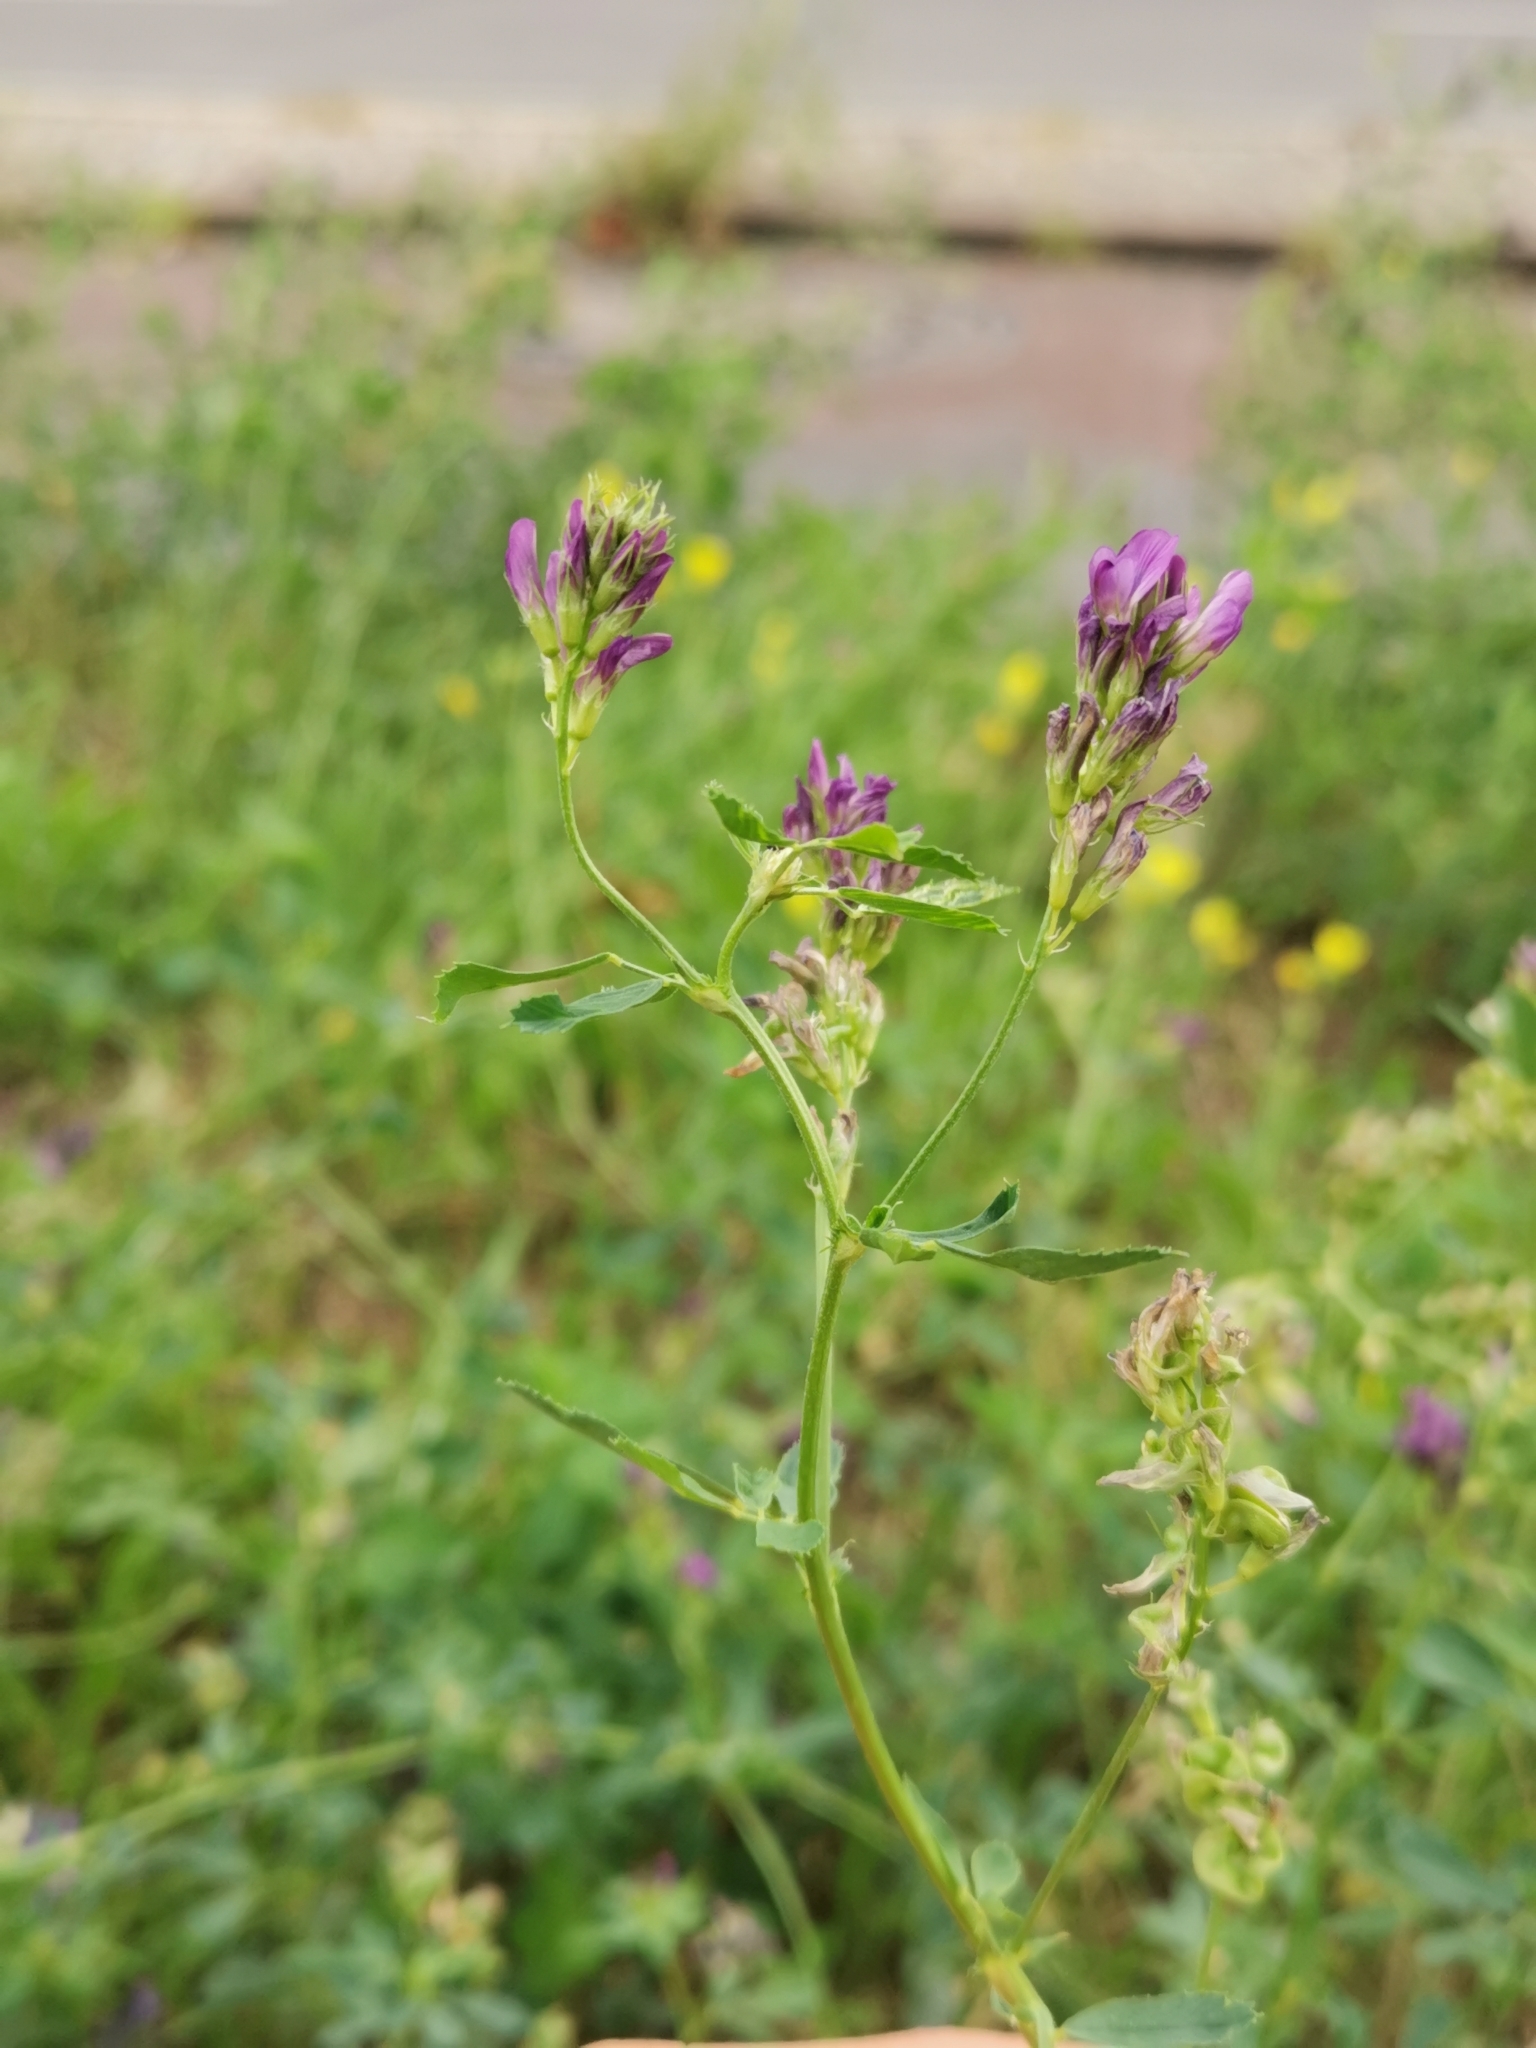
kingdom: Plantae
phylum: Tracheophyta
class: Magnoliopsida
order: Fabales
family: Fabaceae
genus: Medicago
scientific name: Medicago sativa
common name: Alfalfa
